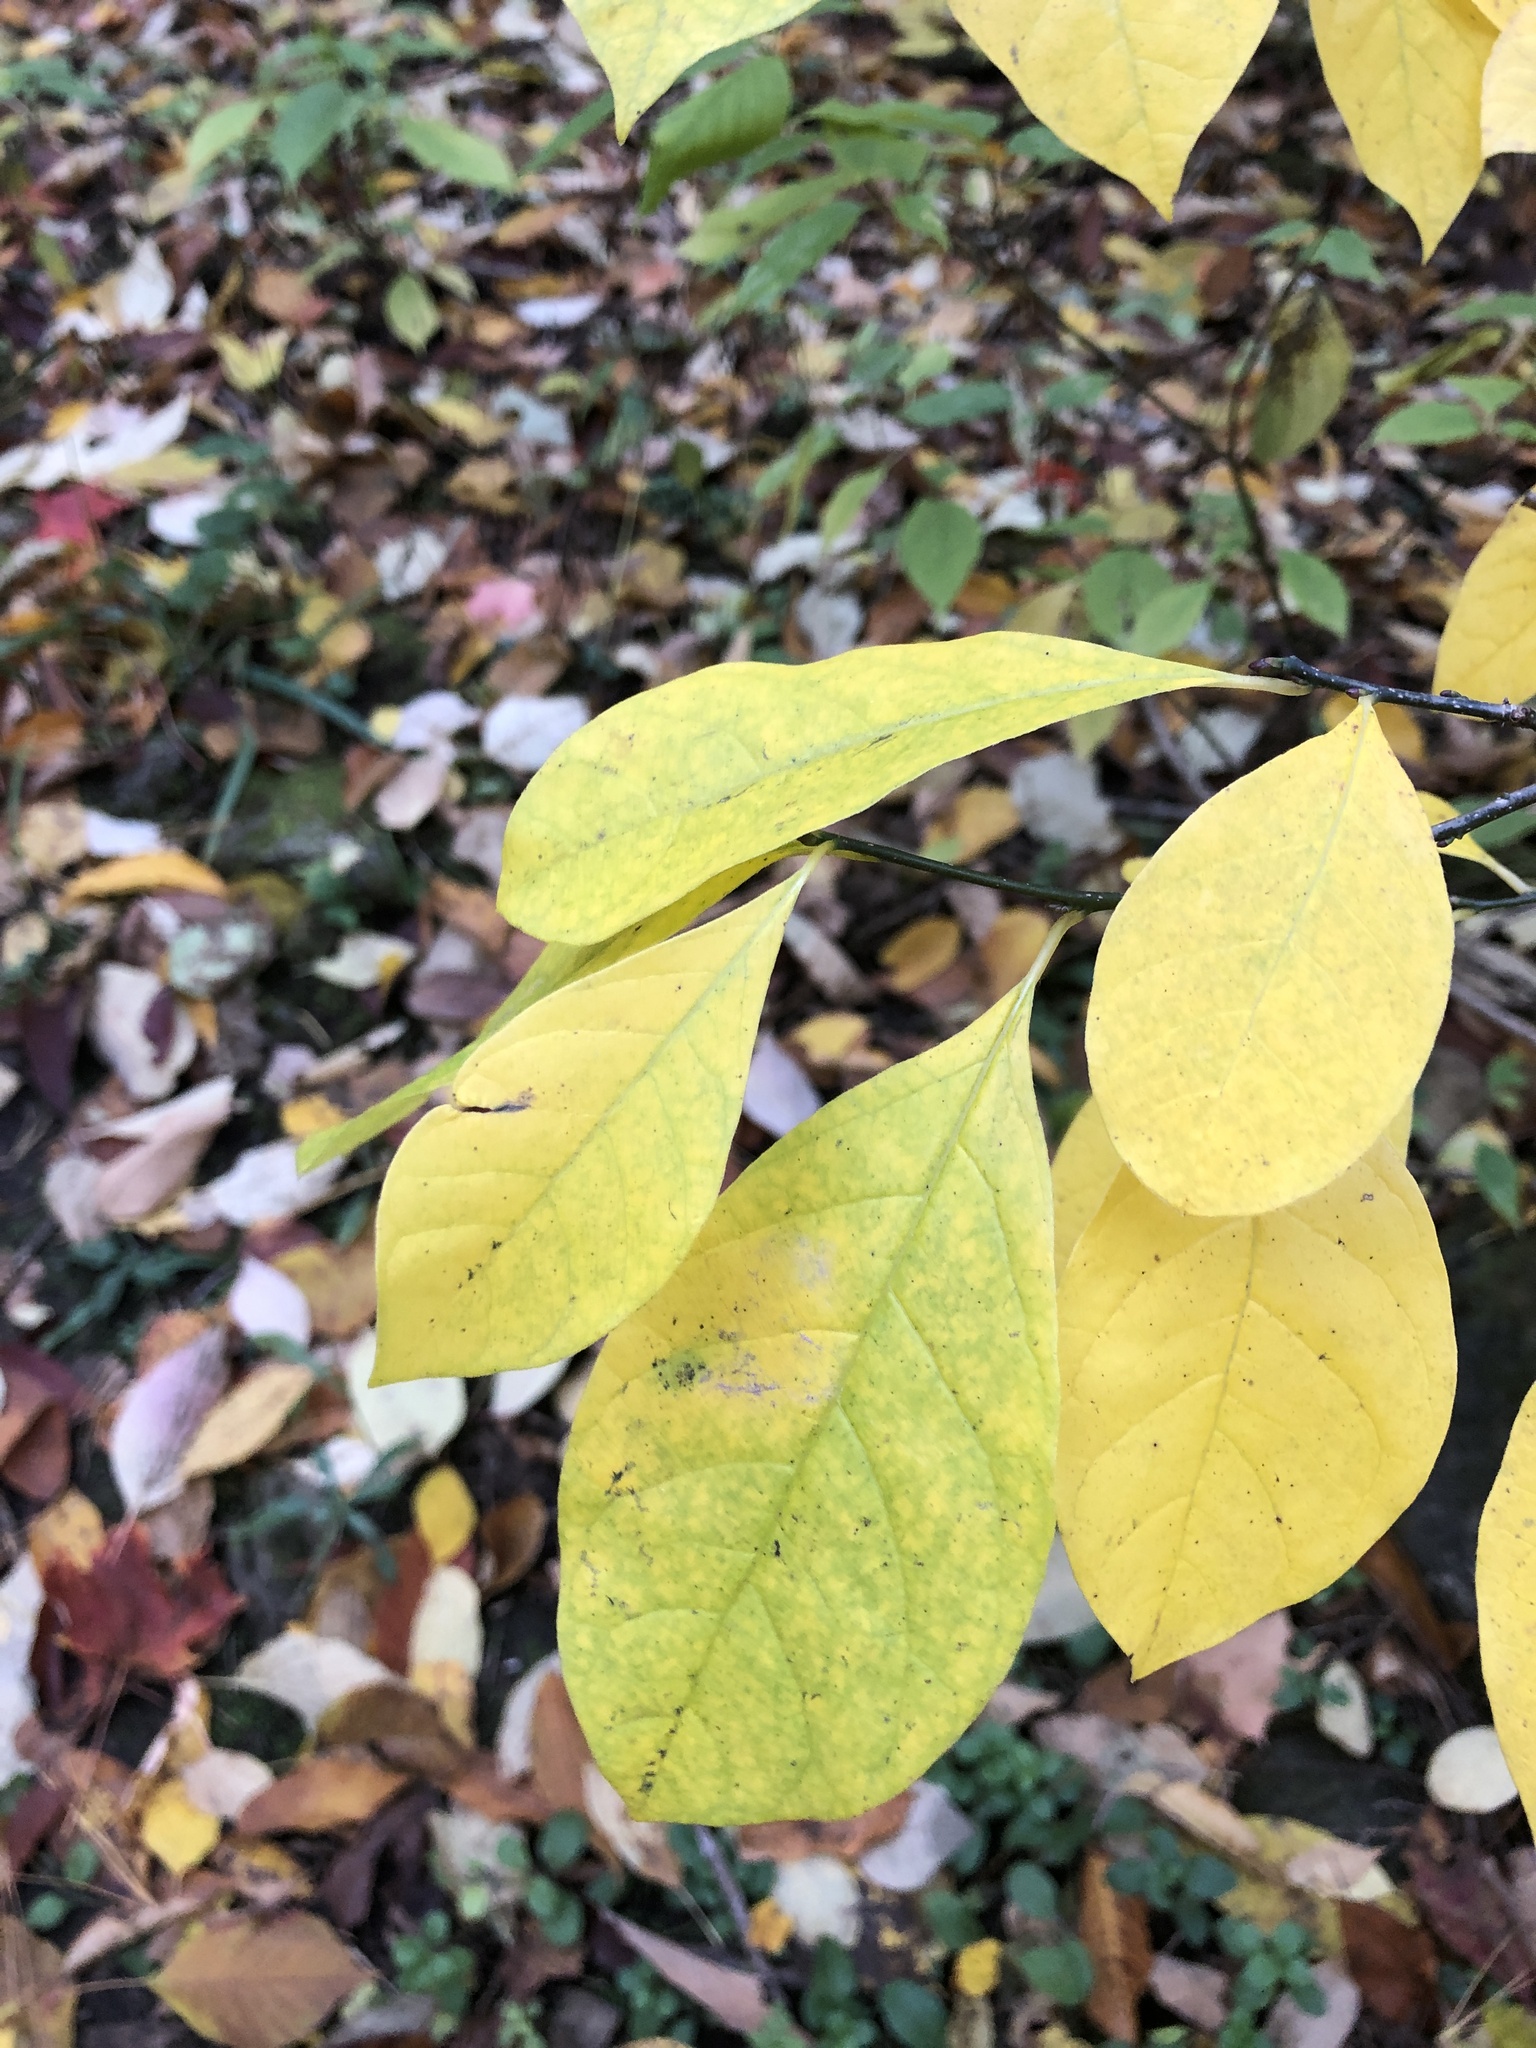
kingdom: Plantae
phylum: Tracheophyta
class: Magnoliopsida
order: Laurales
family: Lauraceae
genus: Lindera
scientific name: Lindera benzoin
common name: Spicebush
